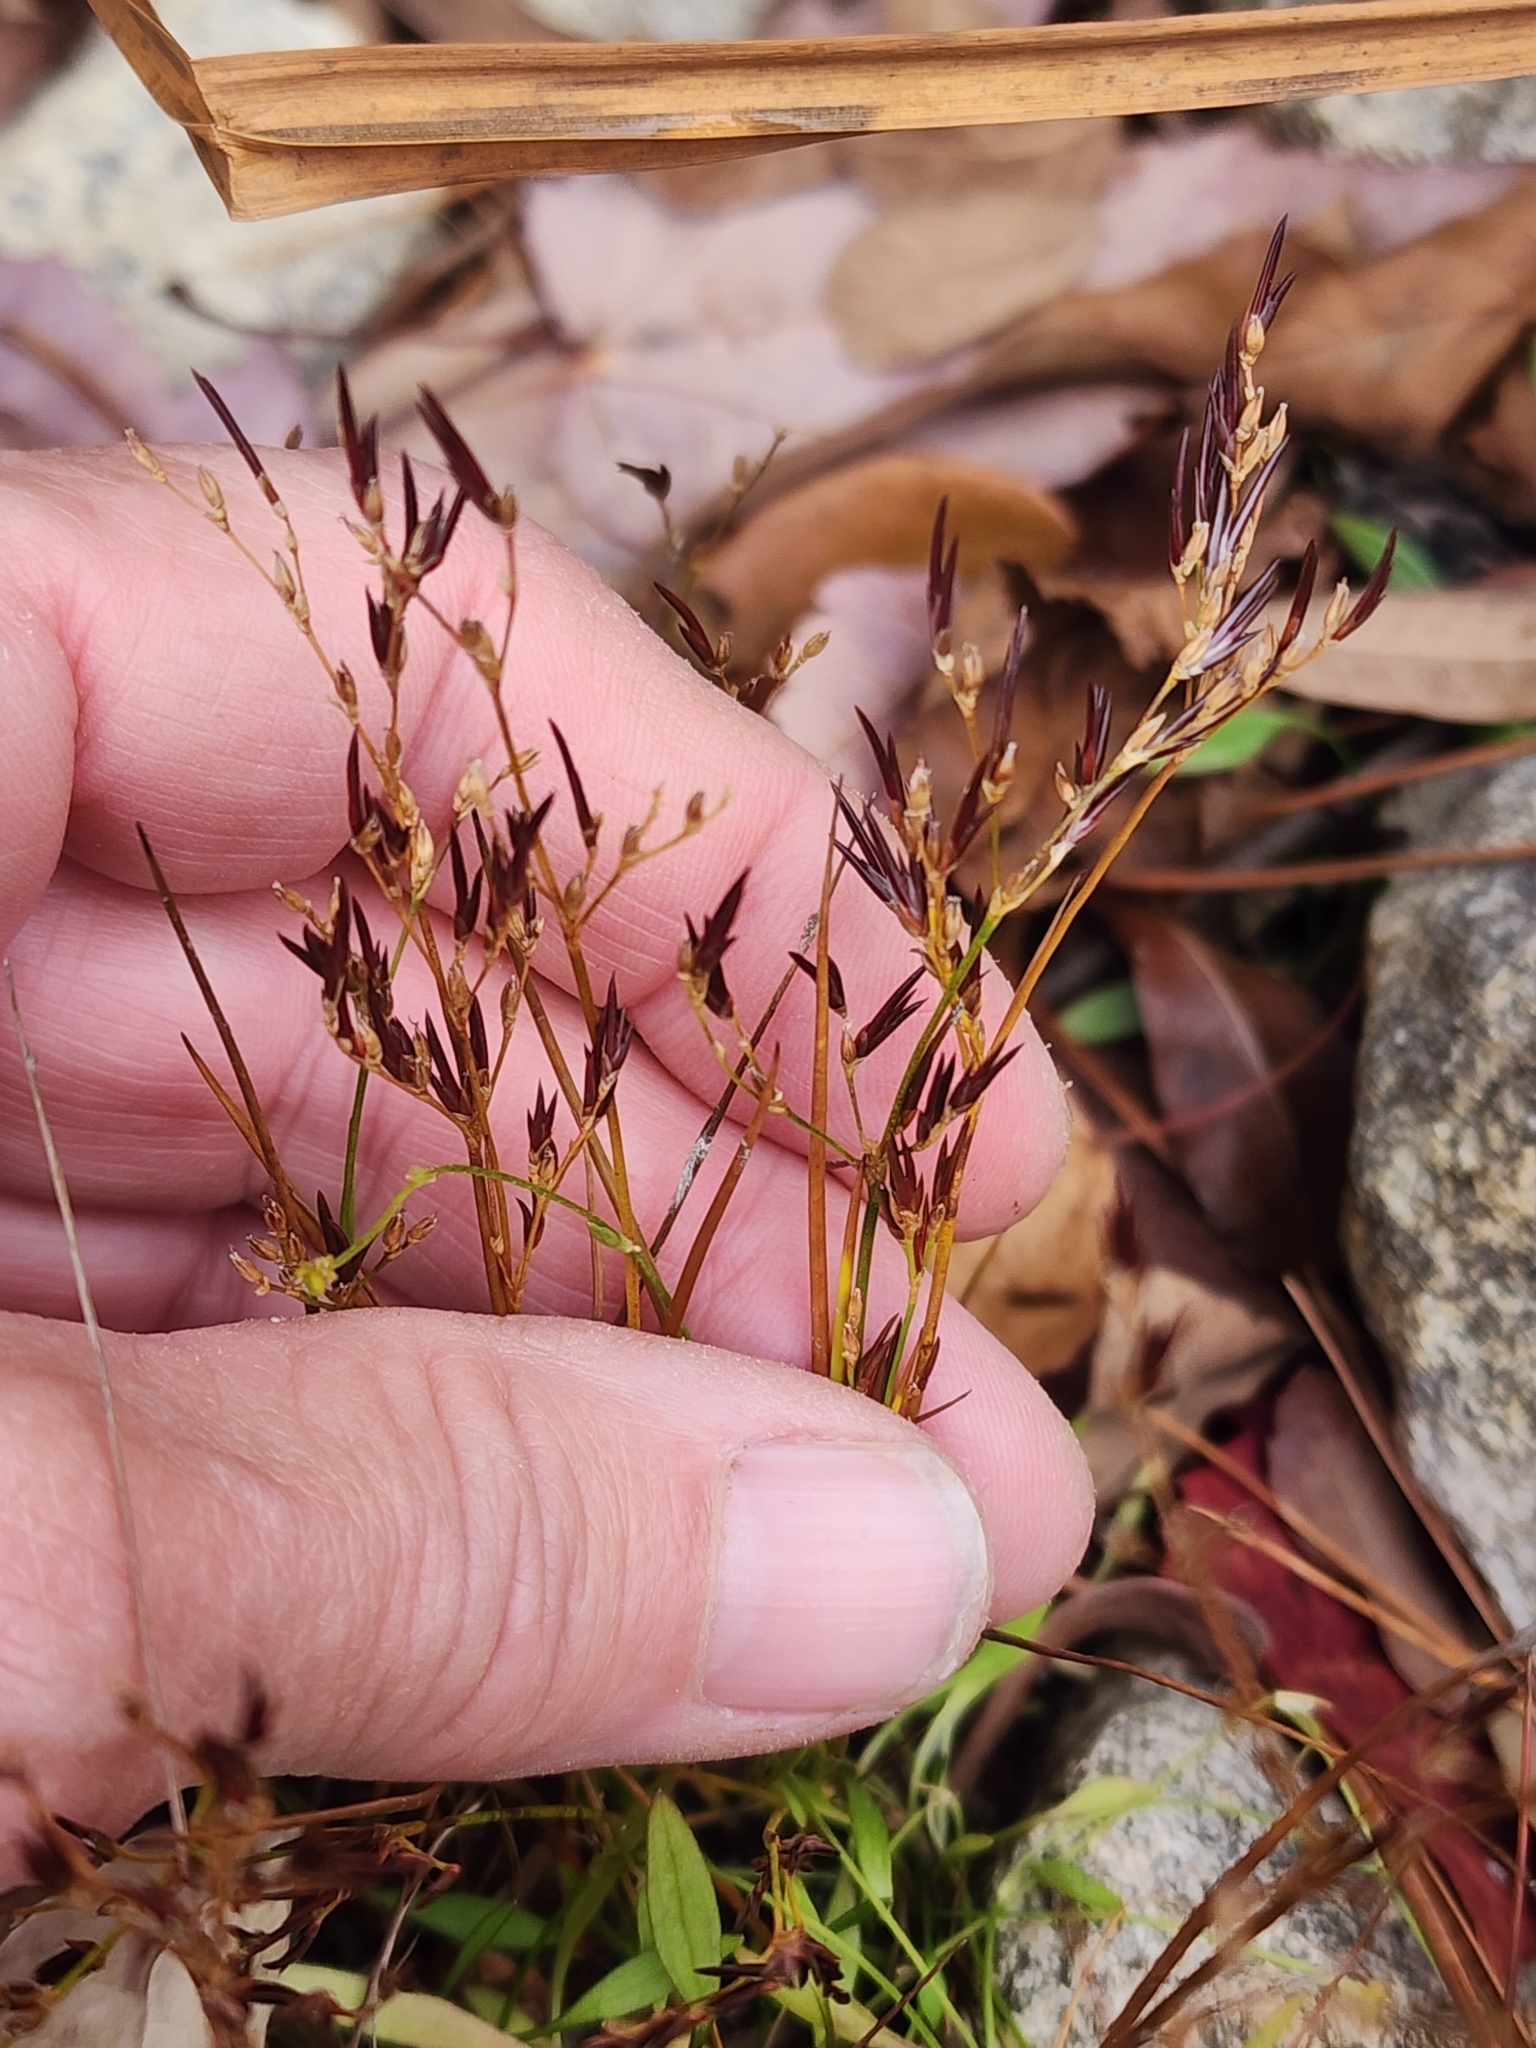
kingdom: Plantae
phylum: Tracheophyta
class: Liliopsida
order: Poales
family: Juncaceae
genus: Juncus
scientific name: Juncus pelocarpus
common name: Brown-fruited rush
